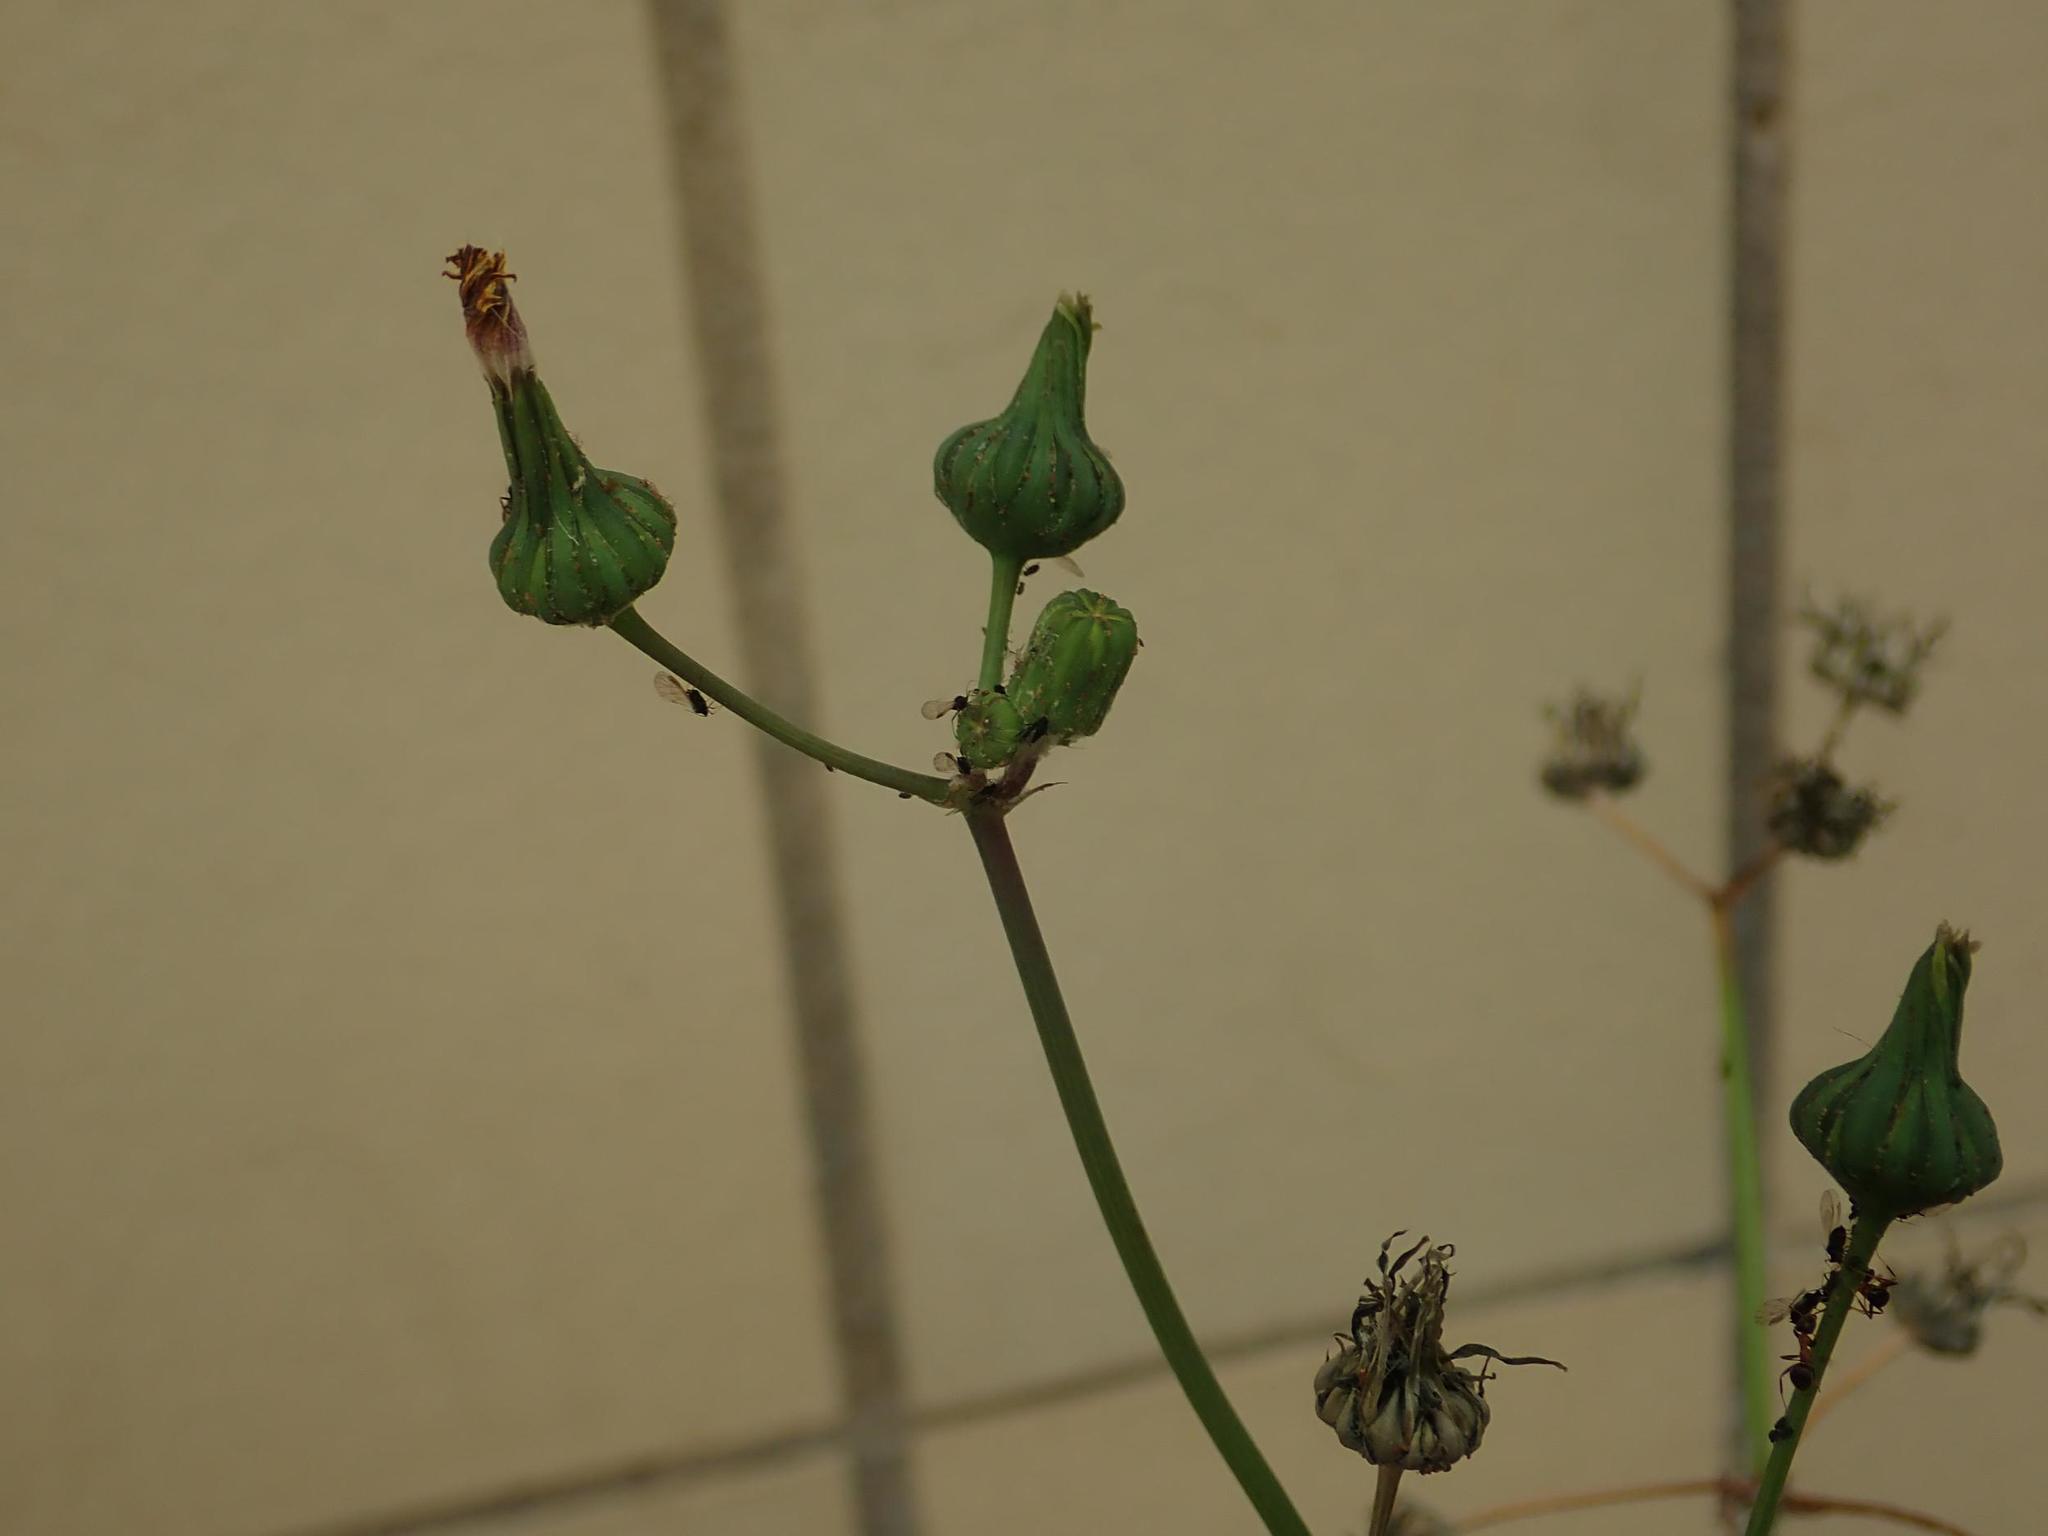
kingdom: Plantae
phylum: Tracheophyta
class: Magnoliopsida
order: Asterales
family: Asteraceae
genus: Sonchus
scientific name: Sonchus oleraceus
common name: Common sowthistle
